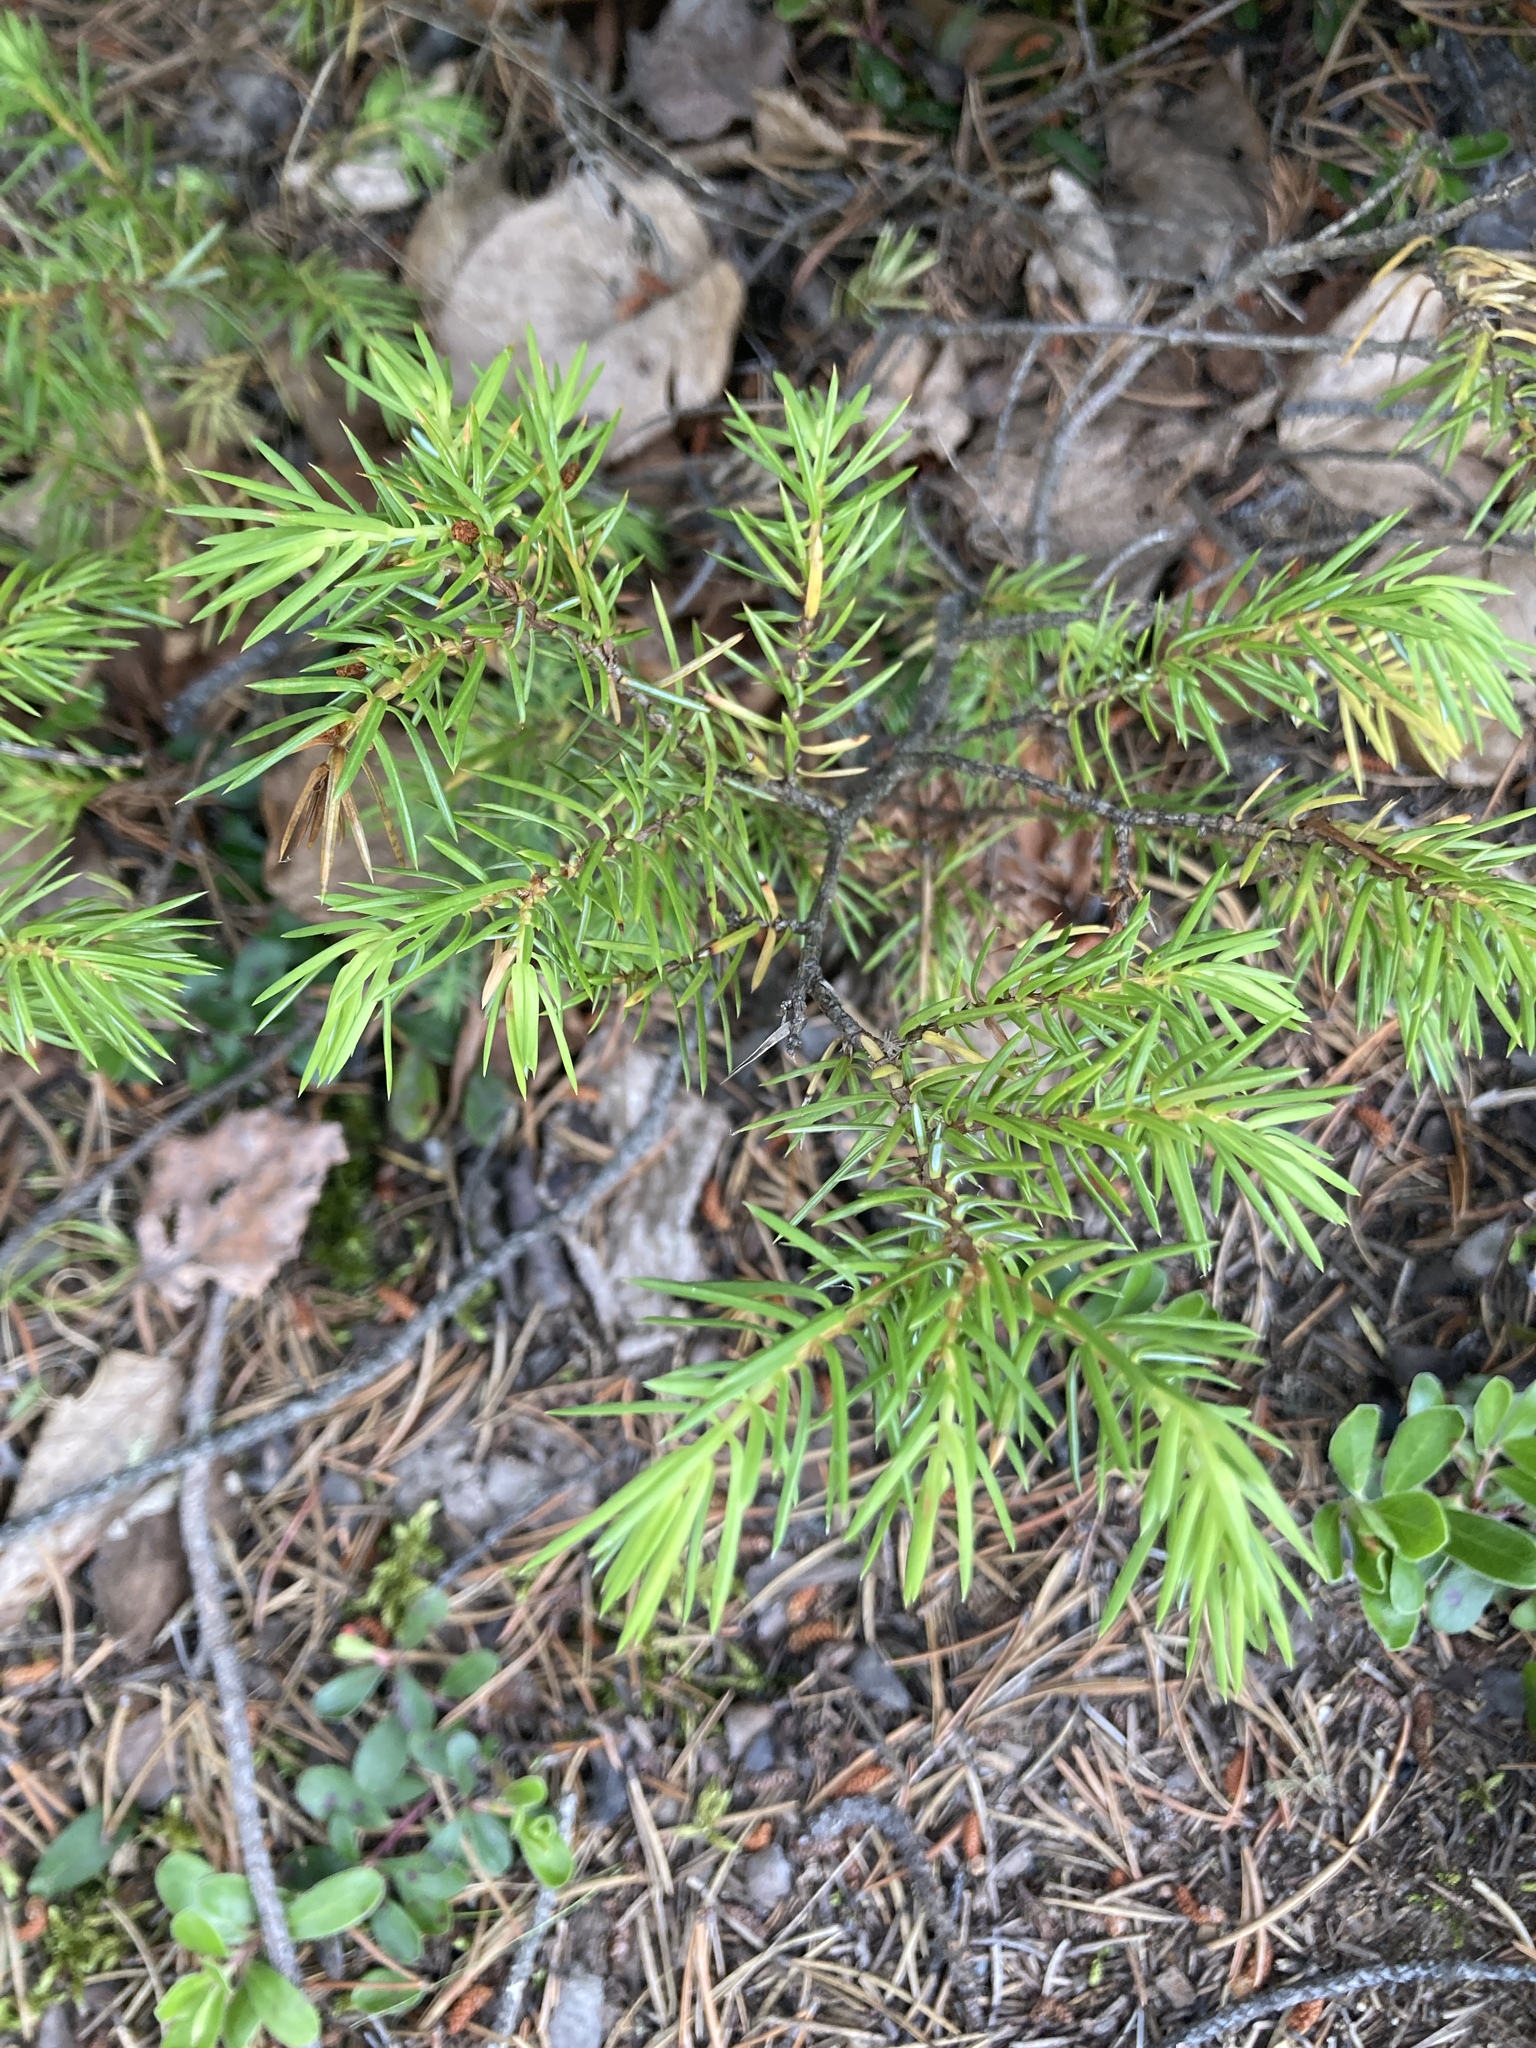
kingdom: Plantae
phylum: Tracheophyta
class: Pinopsida
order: Pinales
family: Cupressaceae
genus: Juniperus
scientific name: Juniperus communis
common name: Common juniper
